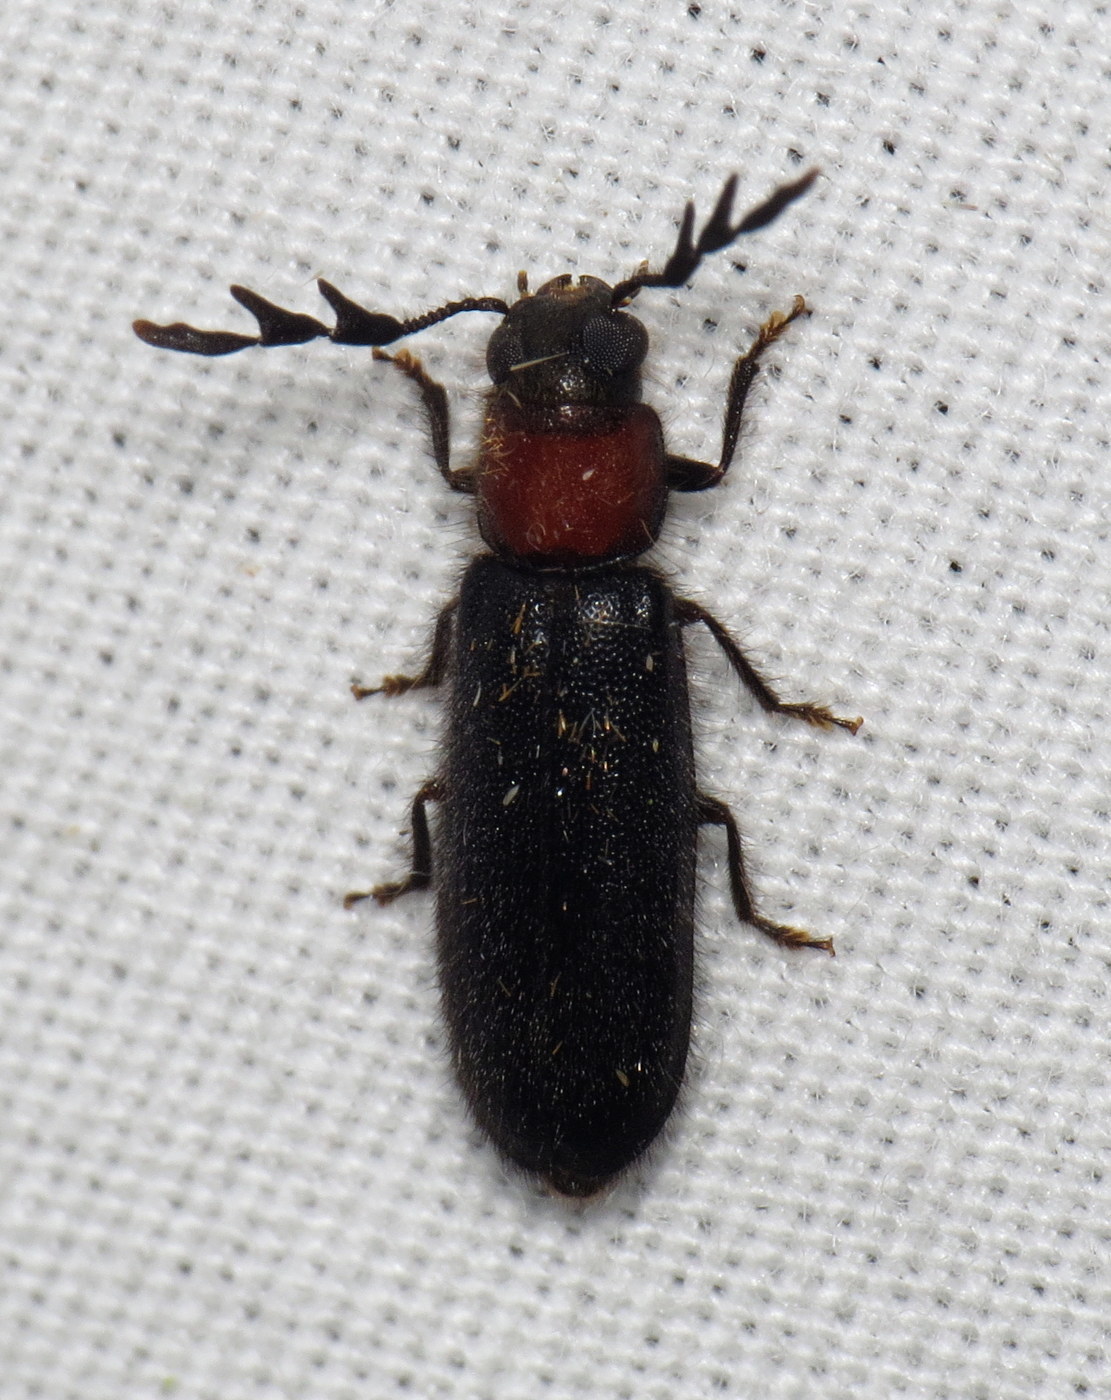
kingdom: Animalia
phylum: Arthropoda
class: Insecta
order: Coleoptera
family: Cleridae
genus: Neorthopleura
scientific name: Neorthopleura thoracica
